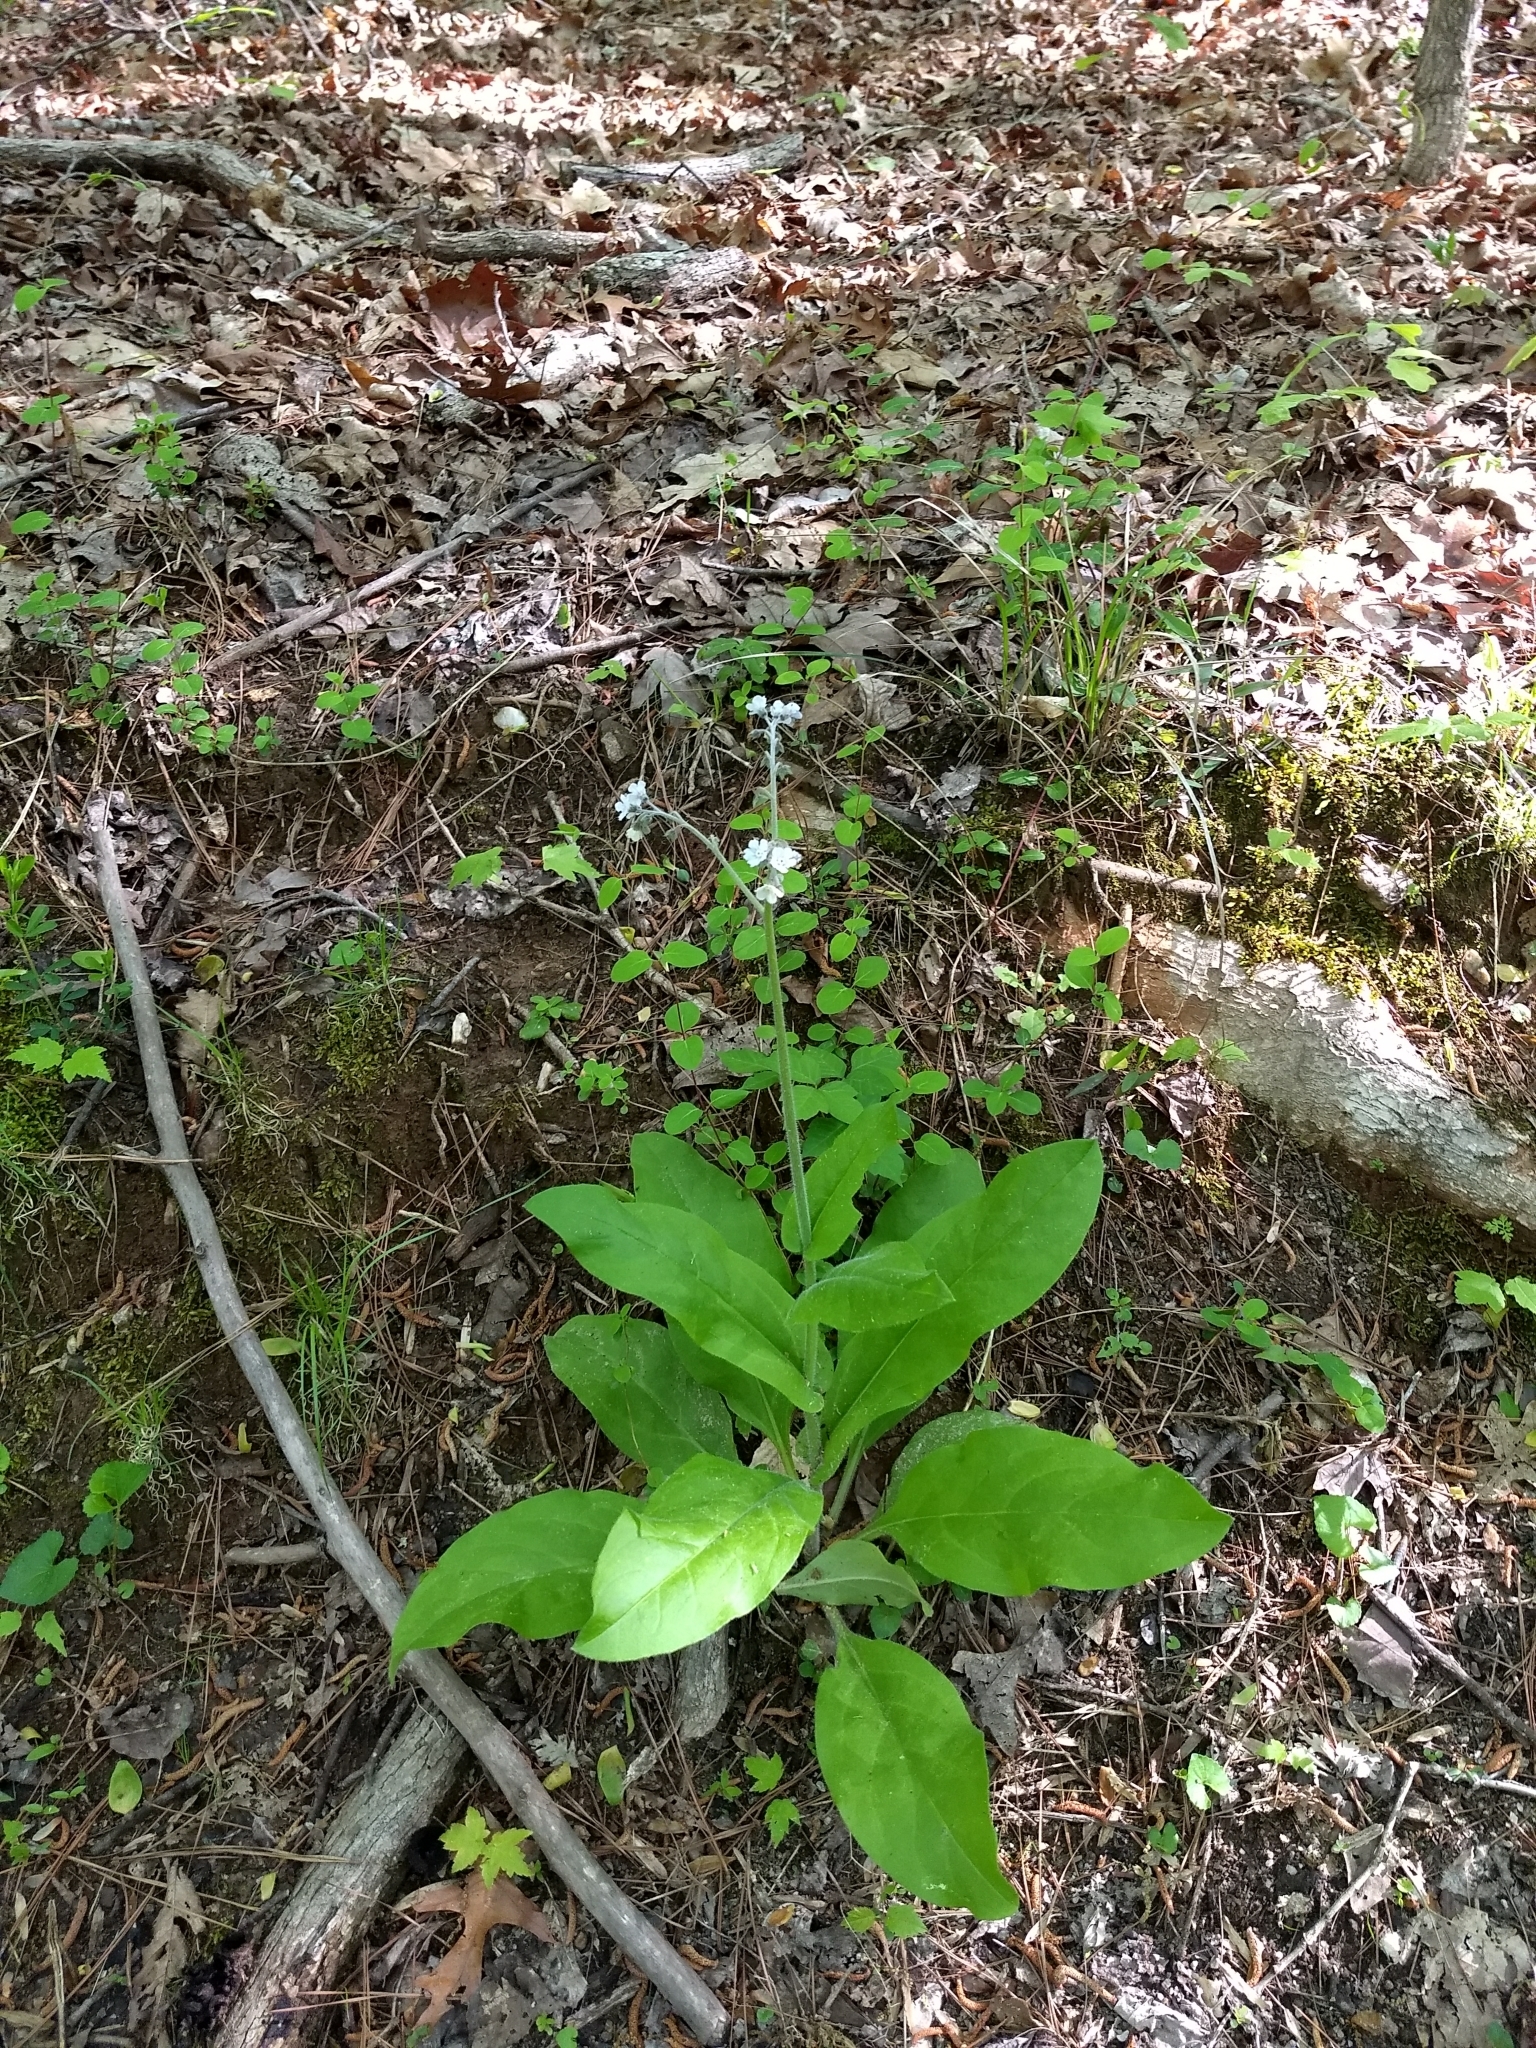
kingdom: Plantae
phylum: Tracheophyta
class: Magnoliopsida
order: Boraginales
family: Boraginaceae
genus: Andersonglossum
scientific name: Andersonglossum virginianum
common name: Wild comfrey
